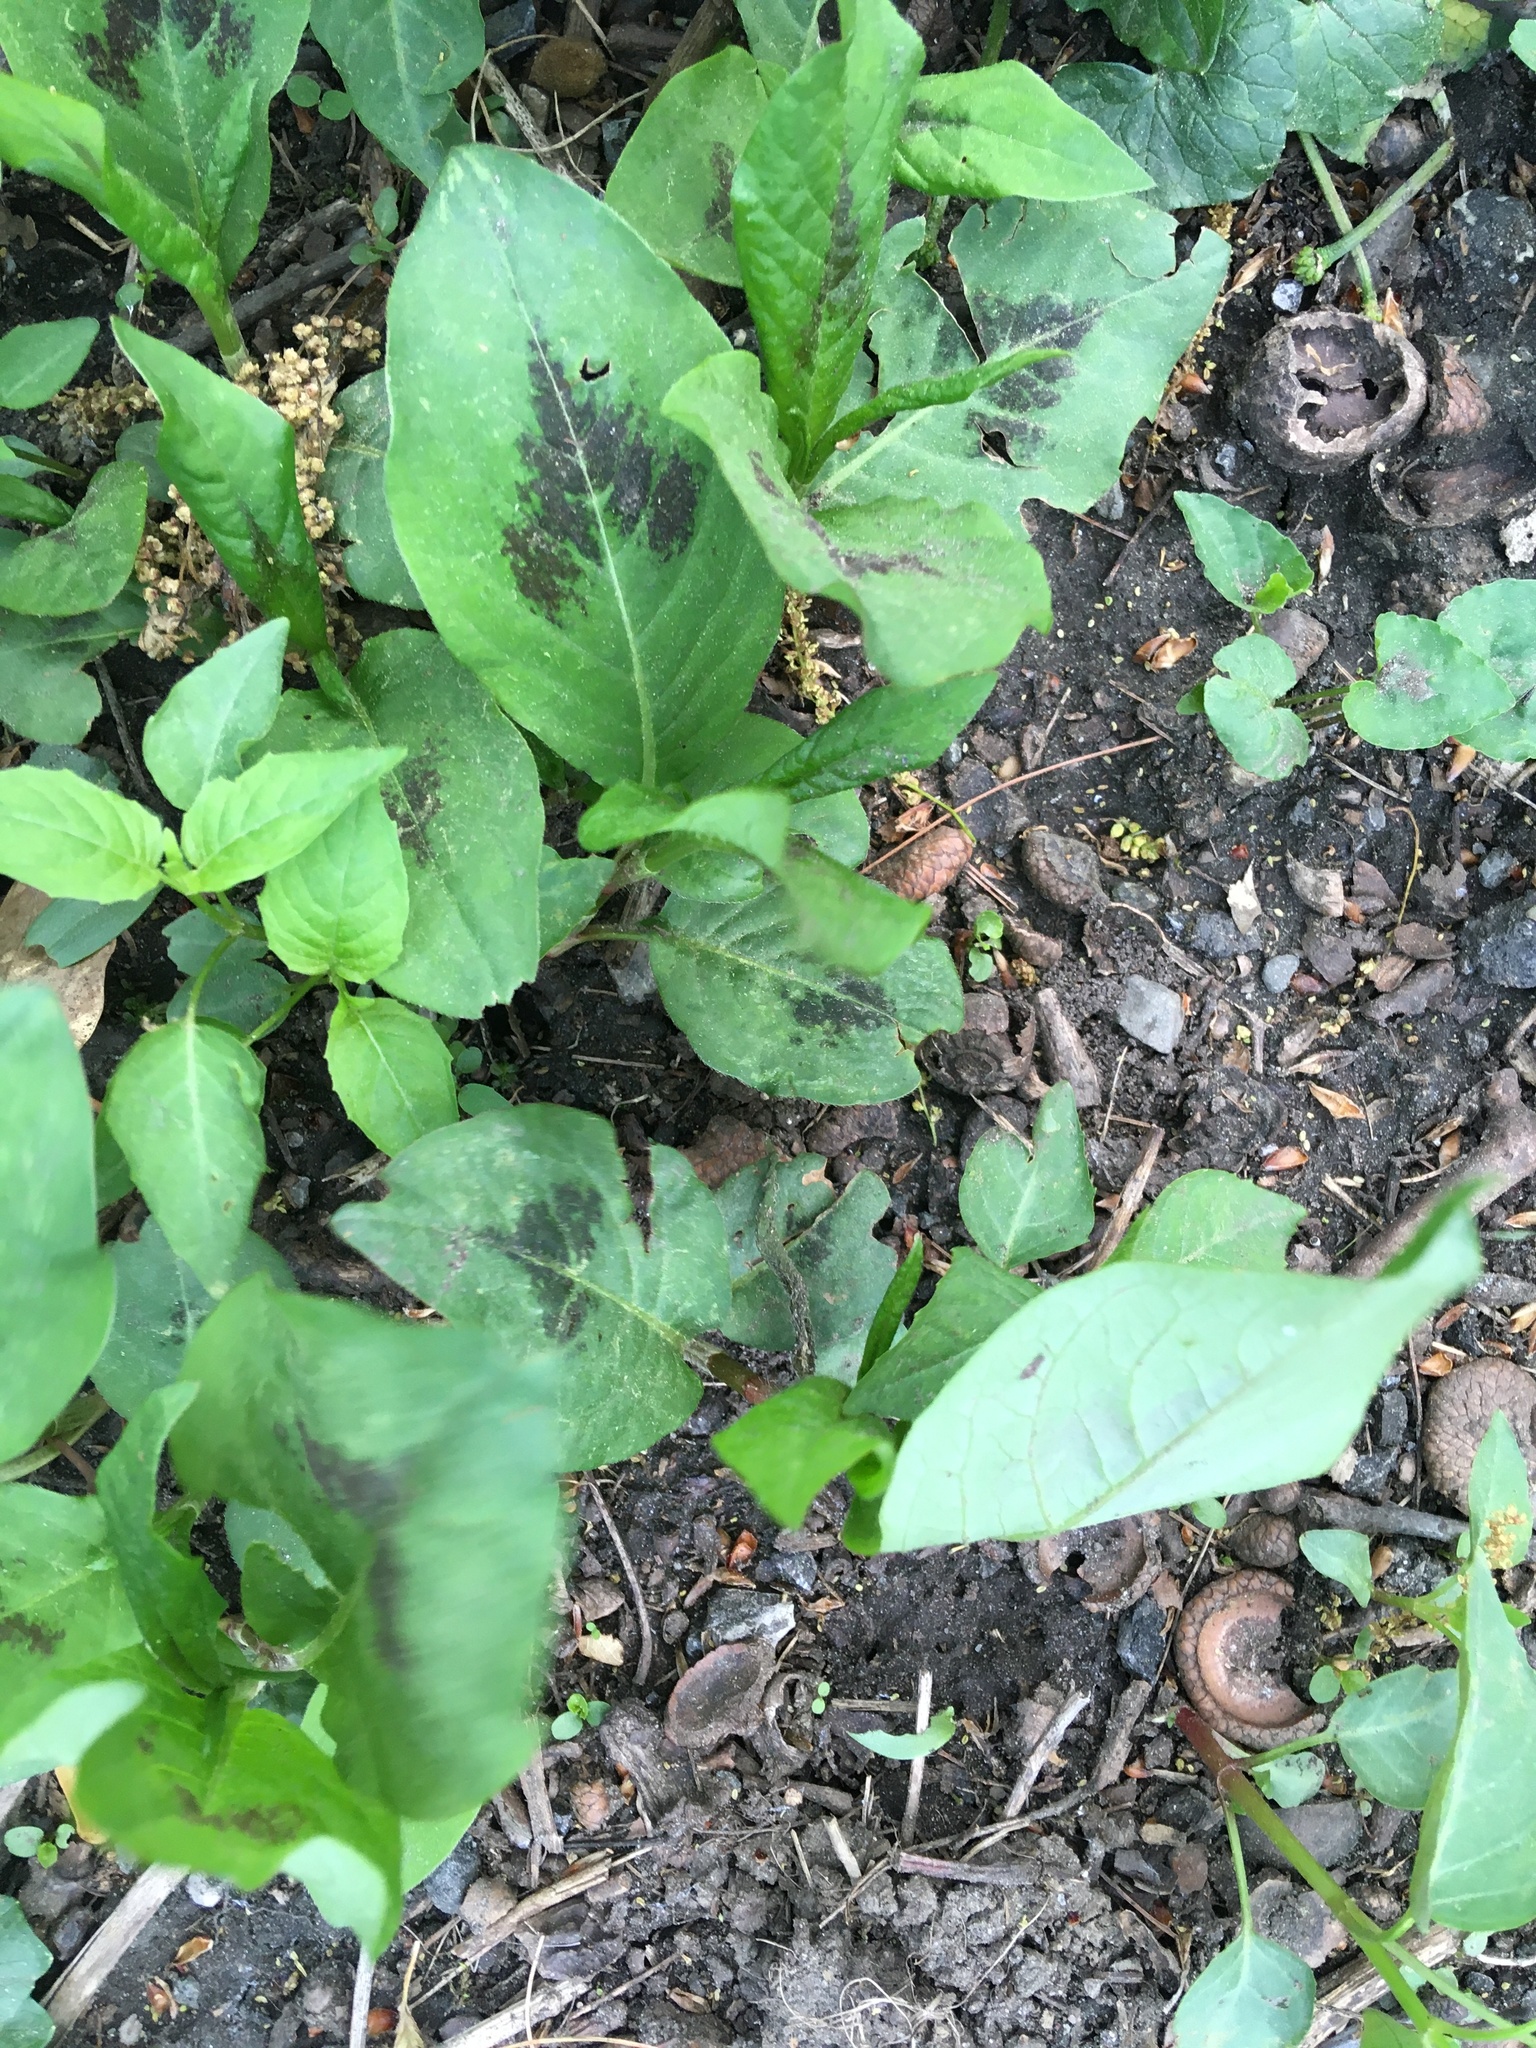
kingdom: Plantae
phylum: Tracheophyta
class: Magnoliopsida
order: Caryophyllales
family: Polygonaceae
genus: Persicaria
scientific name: Persicaria virginiana
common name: Jumpseed
